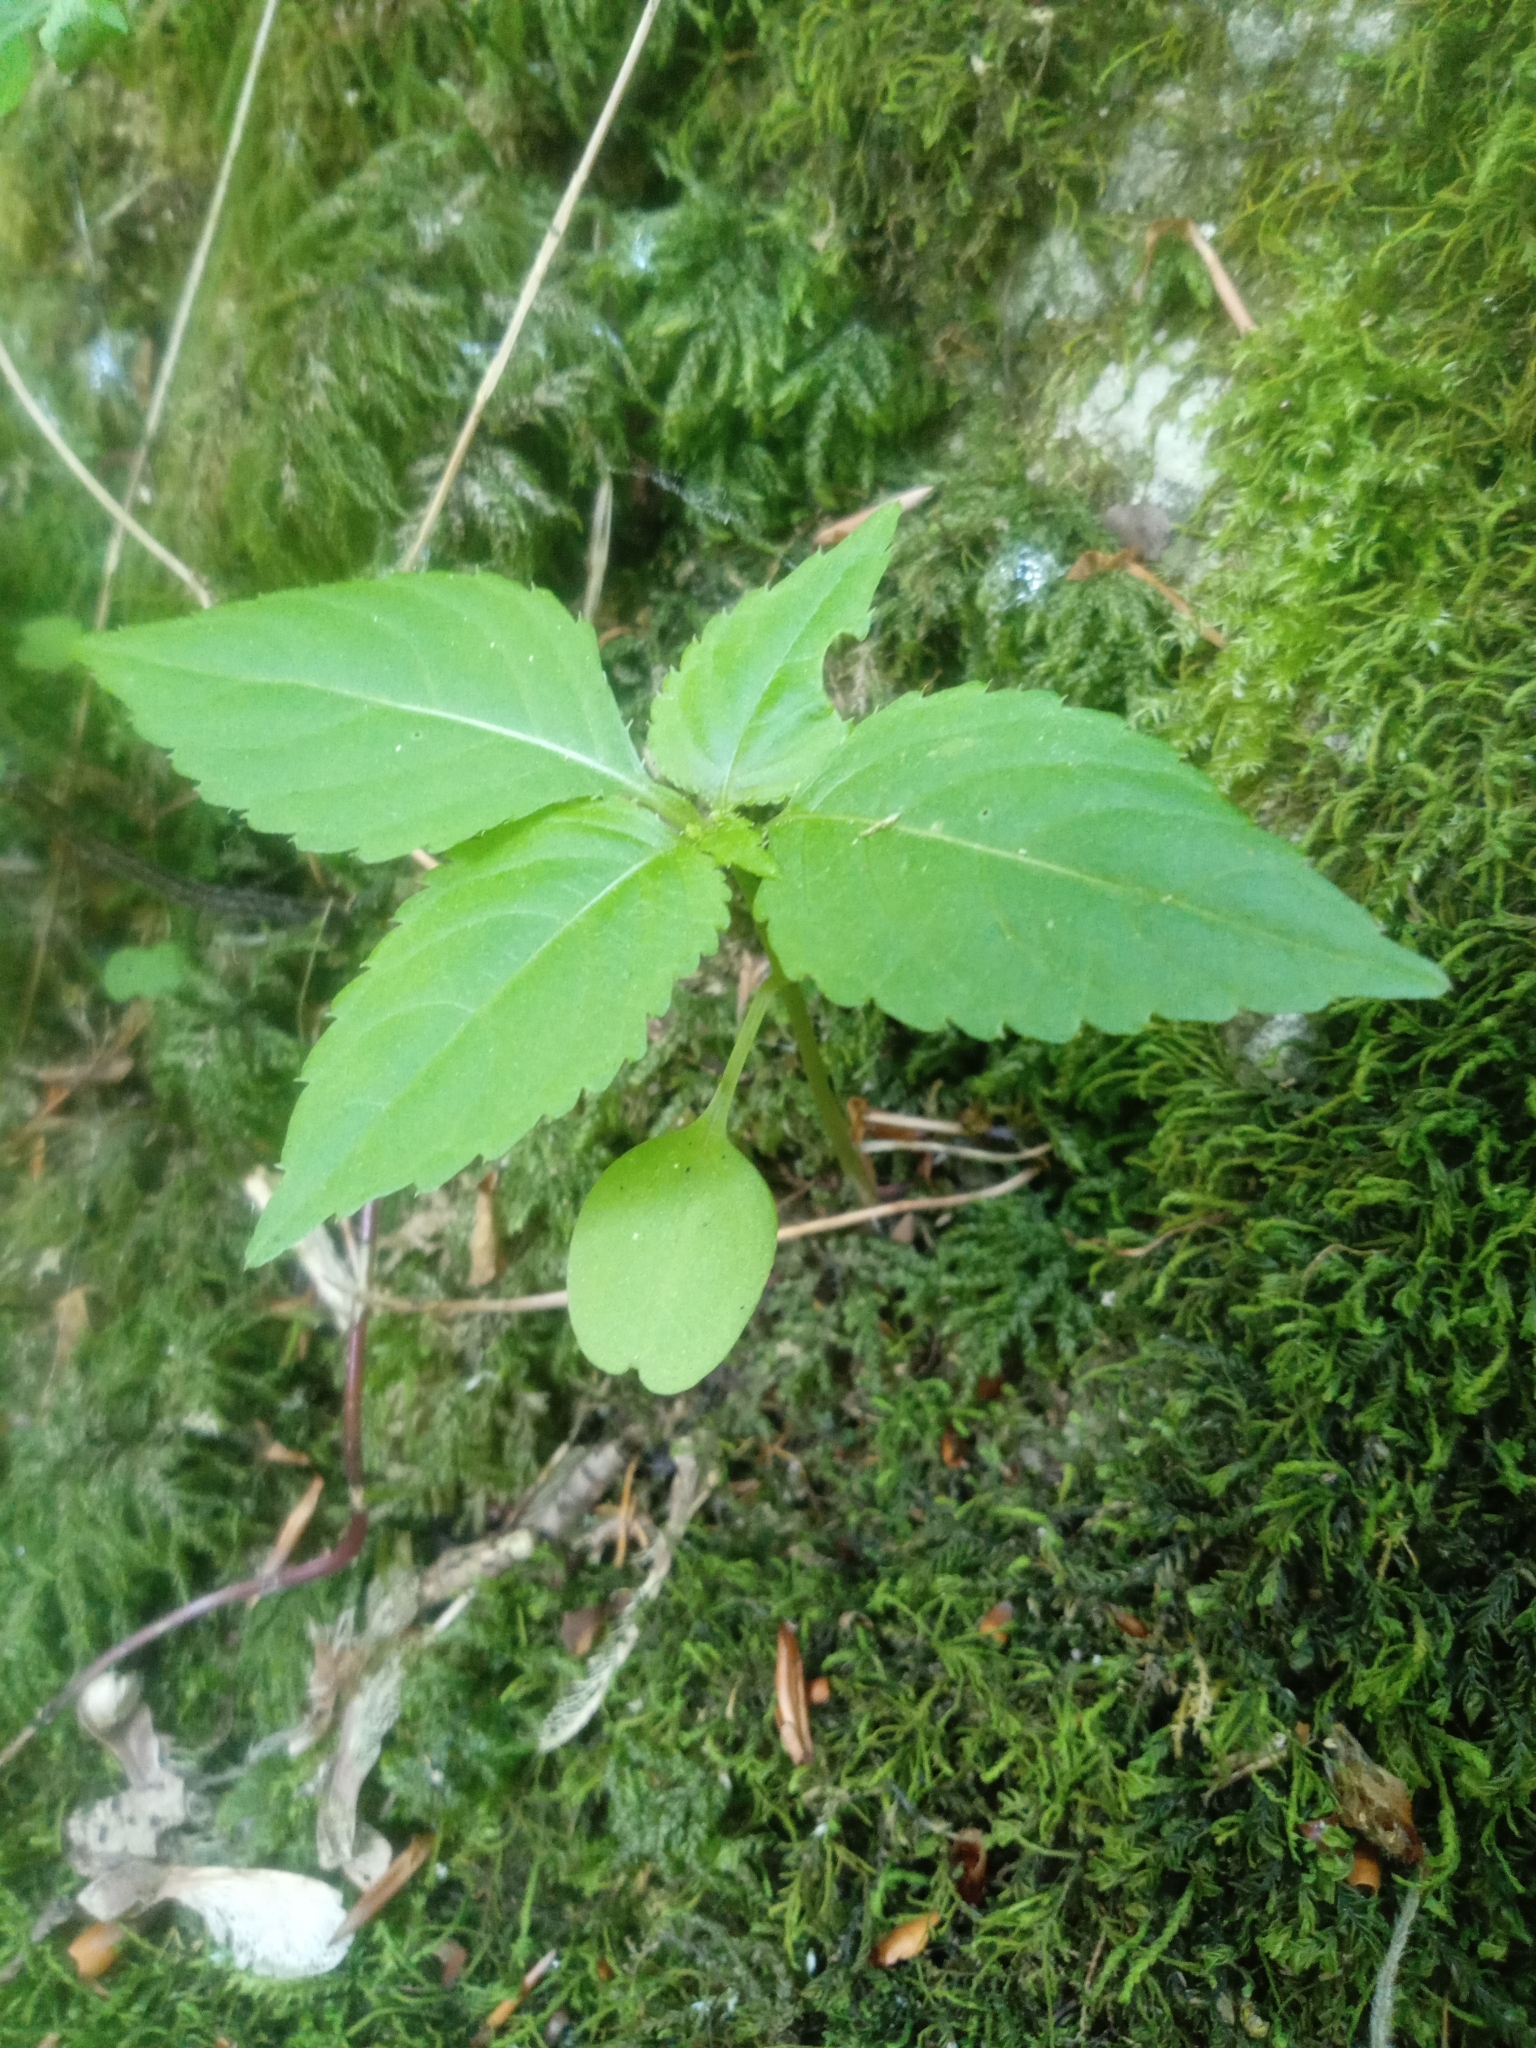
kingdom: Plantae
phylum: Tracheophyta
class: Magnoliopsida
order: Ericales
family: Balsaminaceae
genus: Impatiens
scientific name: Impatiens parviflora
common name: Small balsam
